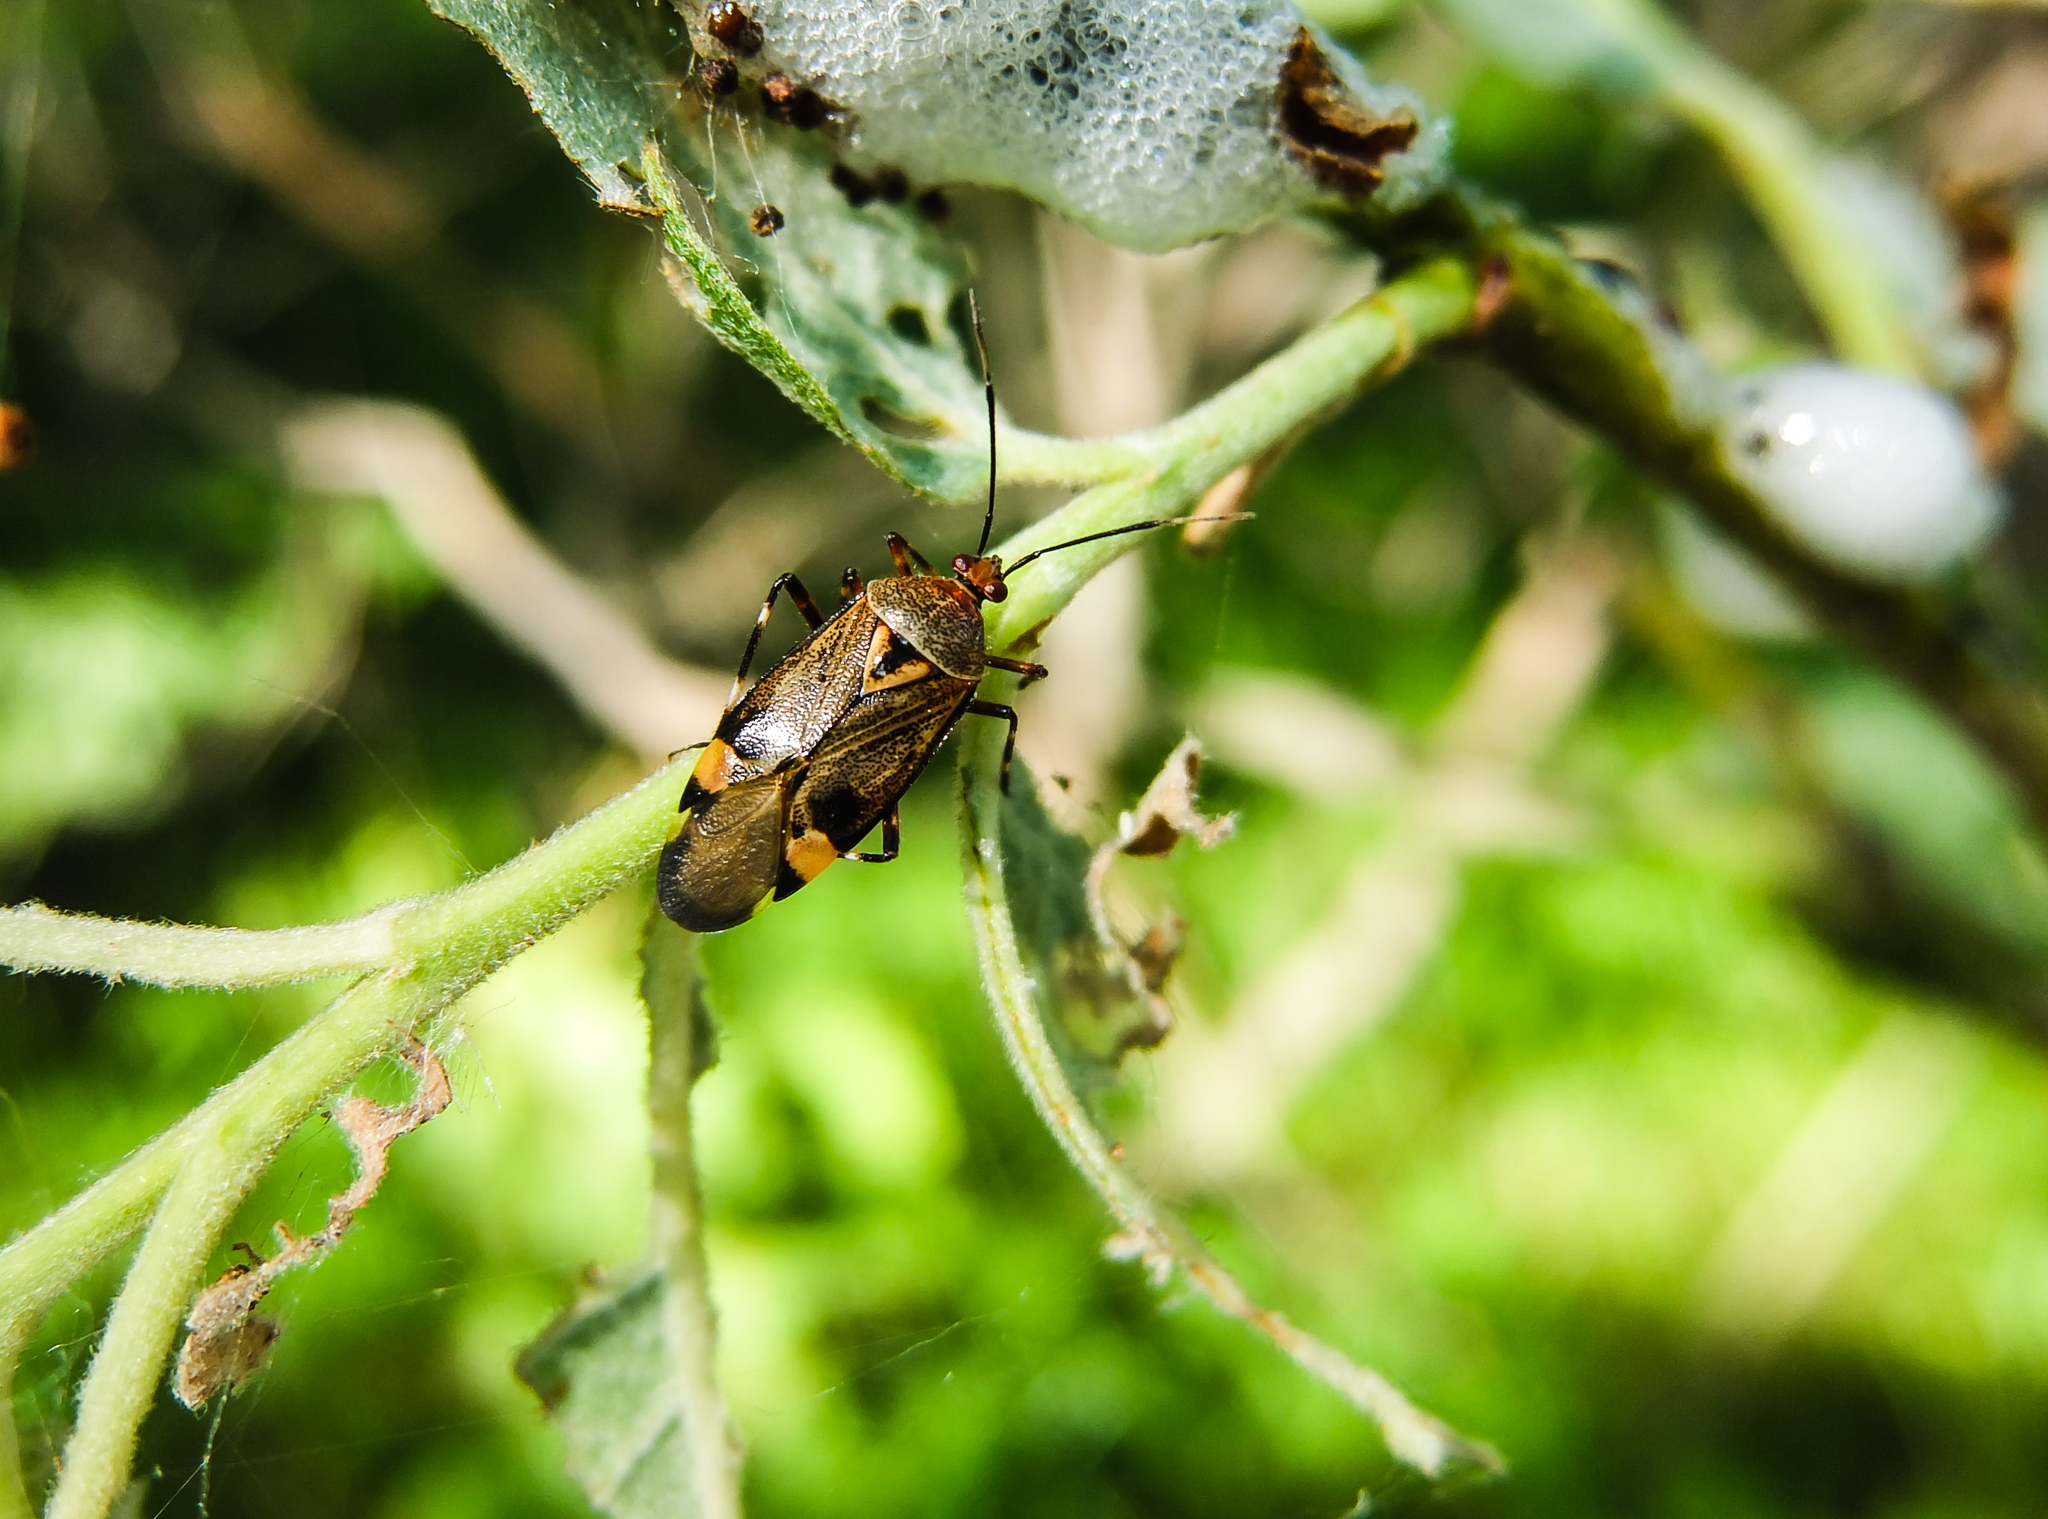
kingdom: Animalia
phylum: Arthropoda
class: Insecta
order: Hemiptera
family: Miridae
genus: Deraeocoris
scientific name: Deraeocoris olivaceus
